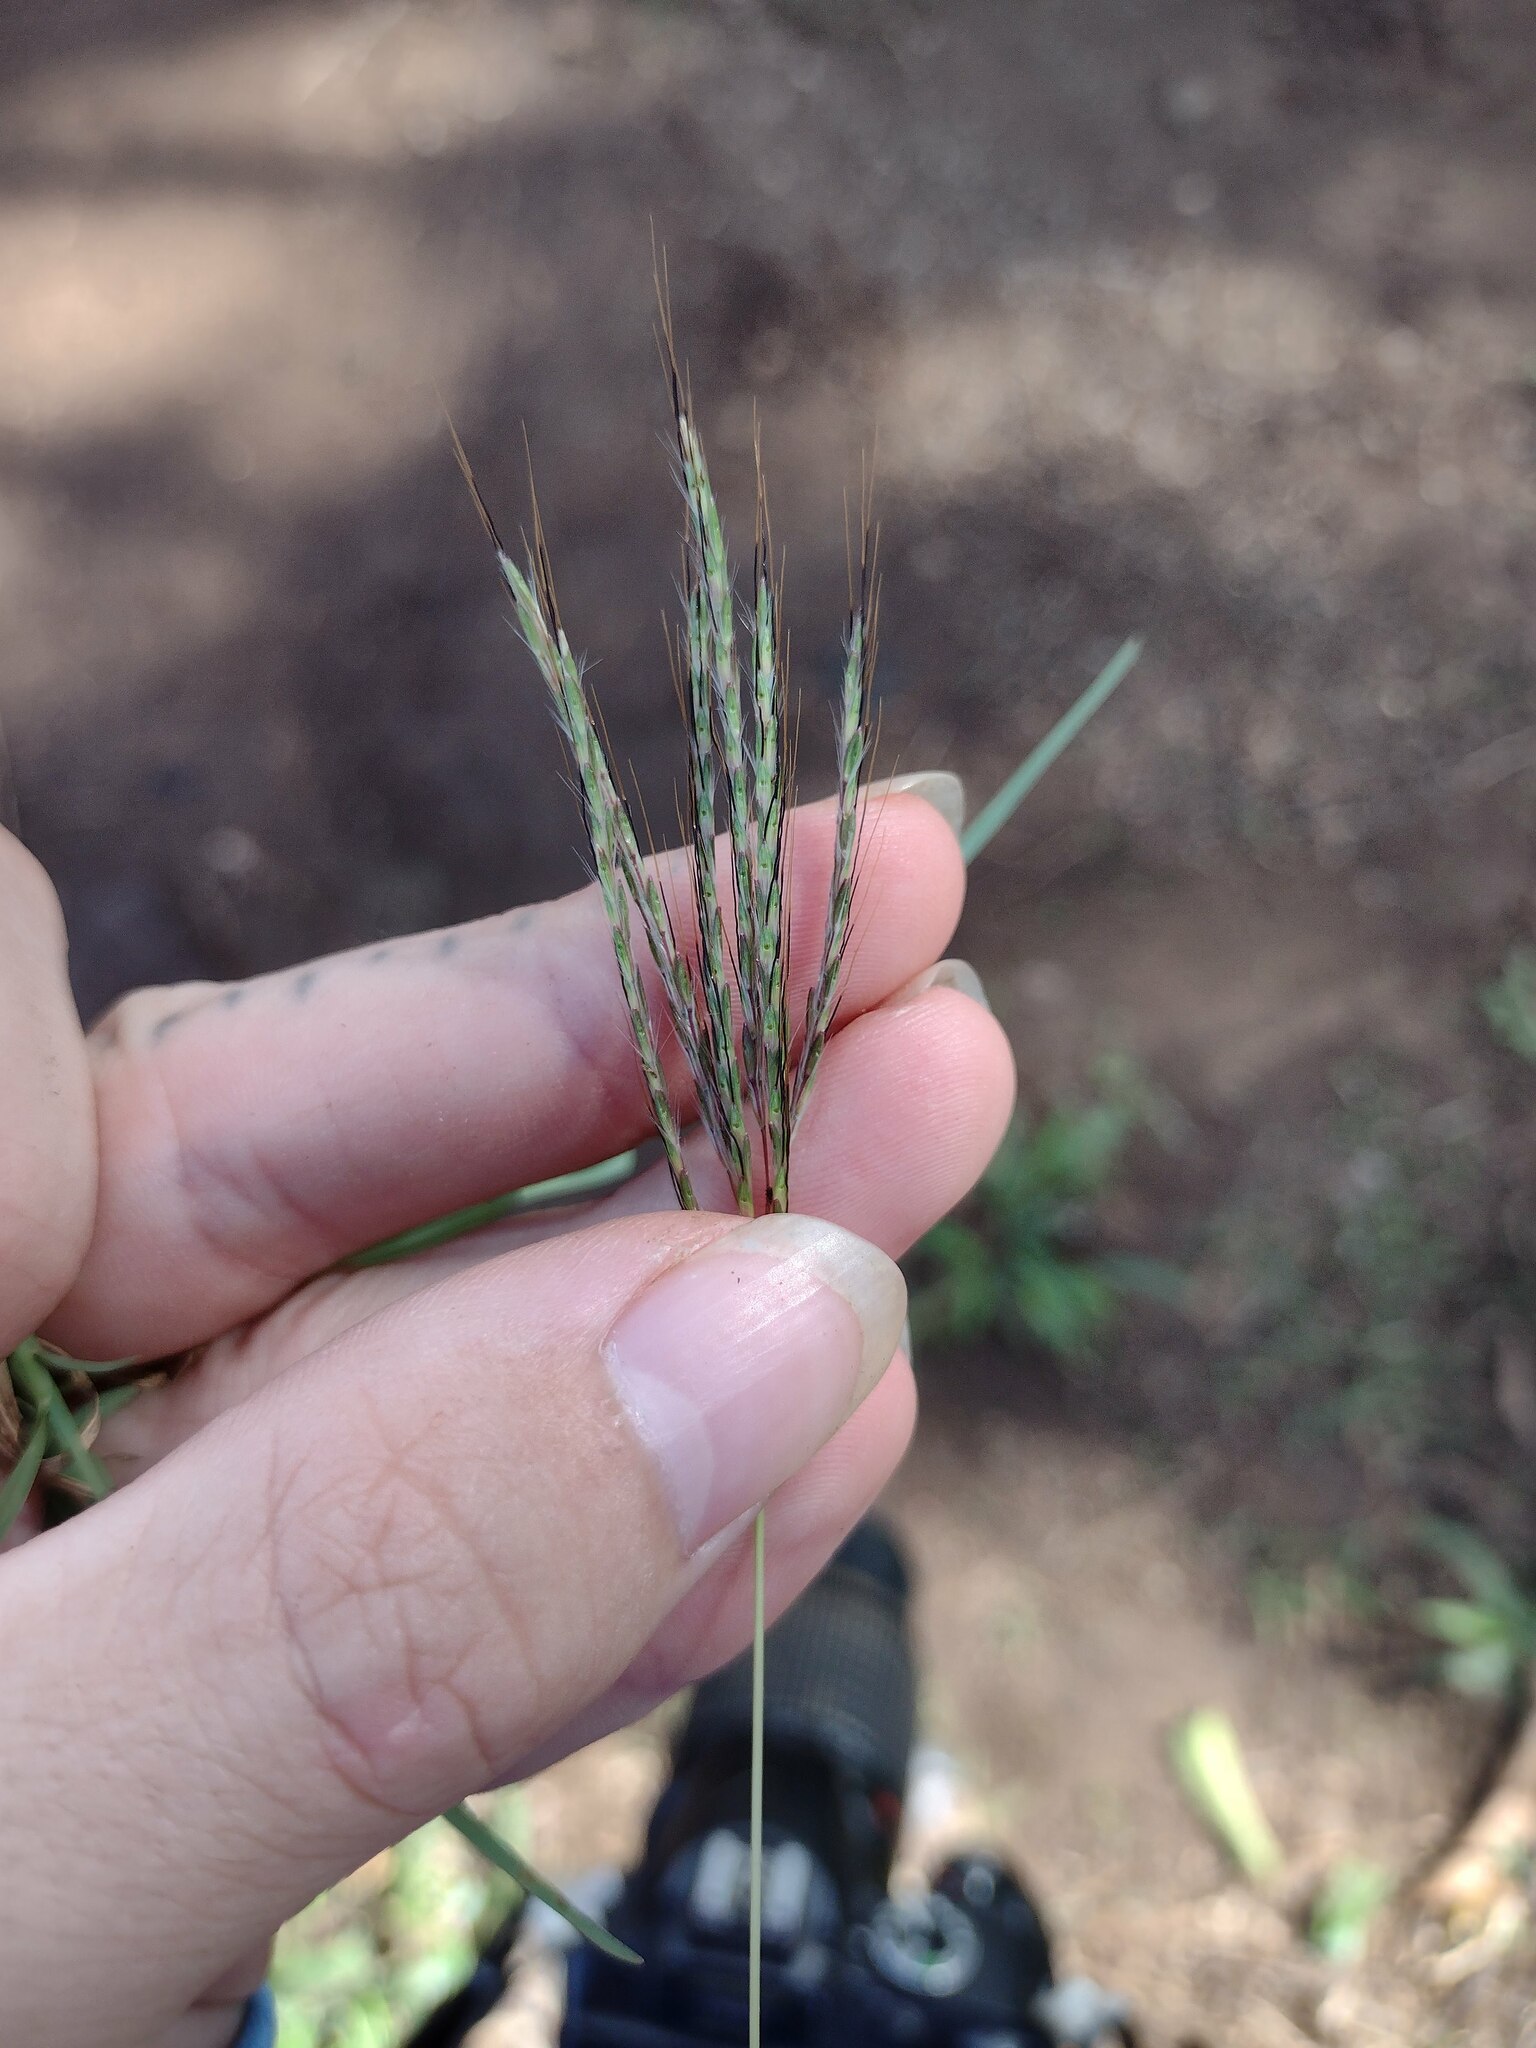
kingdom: Plantae
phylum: Tracheophyta
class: Liliopsida
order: Poales
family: Poaceae
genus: Bothriochloa
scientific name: Bothriochloa pertusa
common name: Pitted beardgrass
